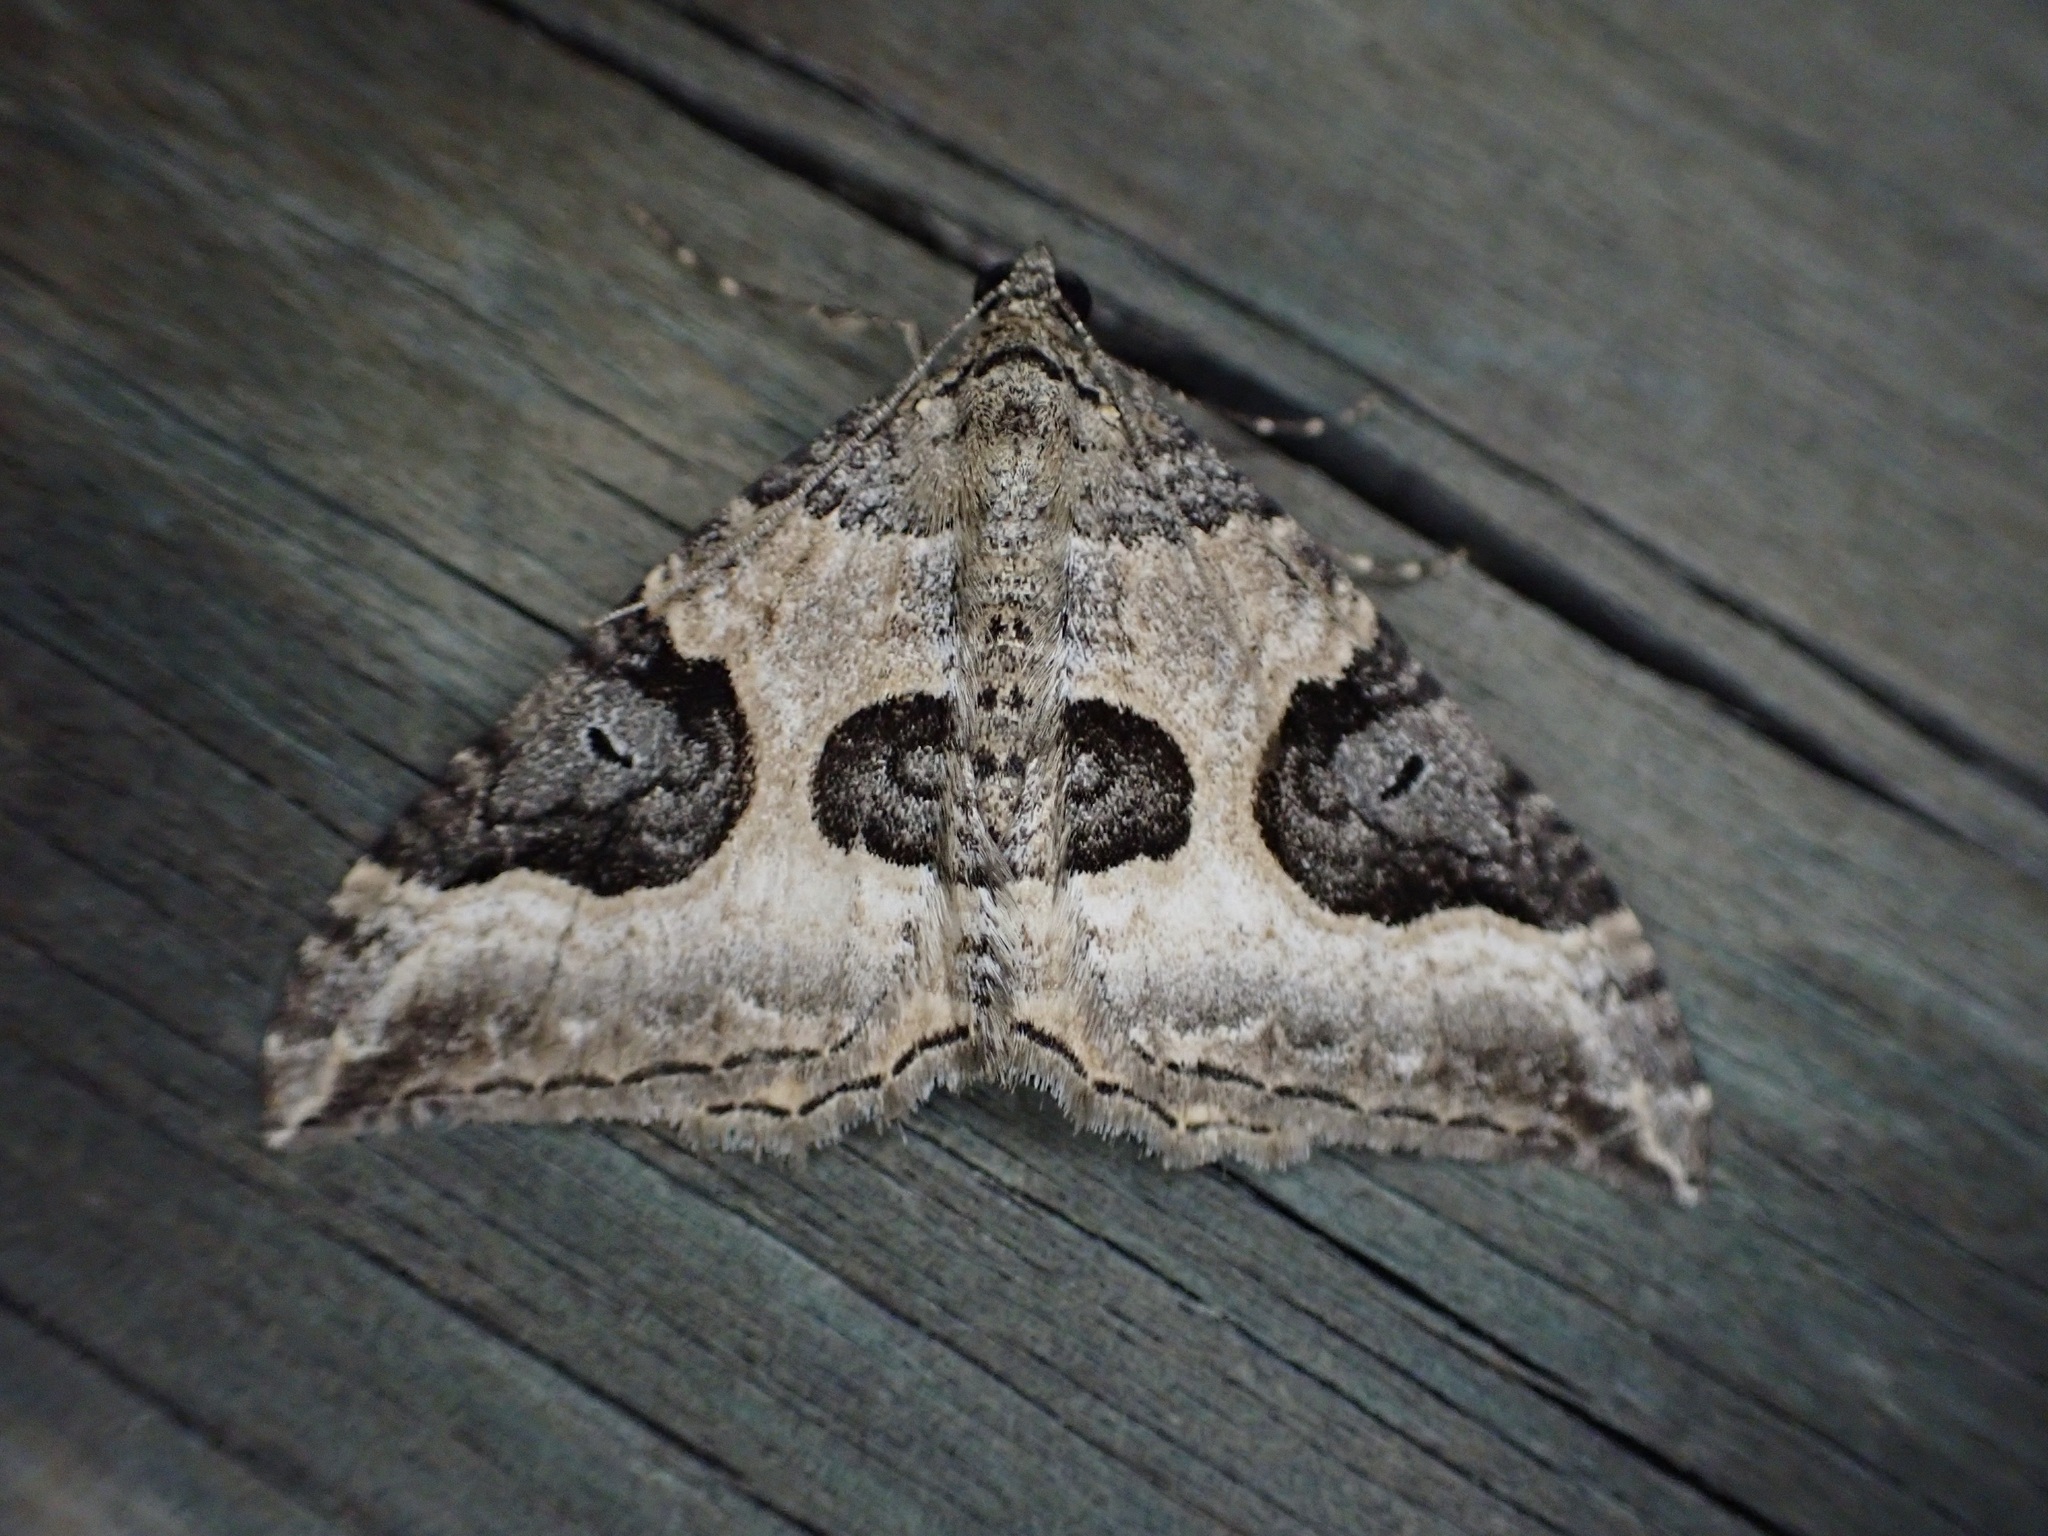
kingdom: Animalia
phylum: Arthropoda
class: Insecta
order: Lepidoptera
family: Geometridae
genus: Hydriomena
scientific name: Hydriomena deltoidata
